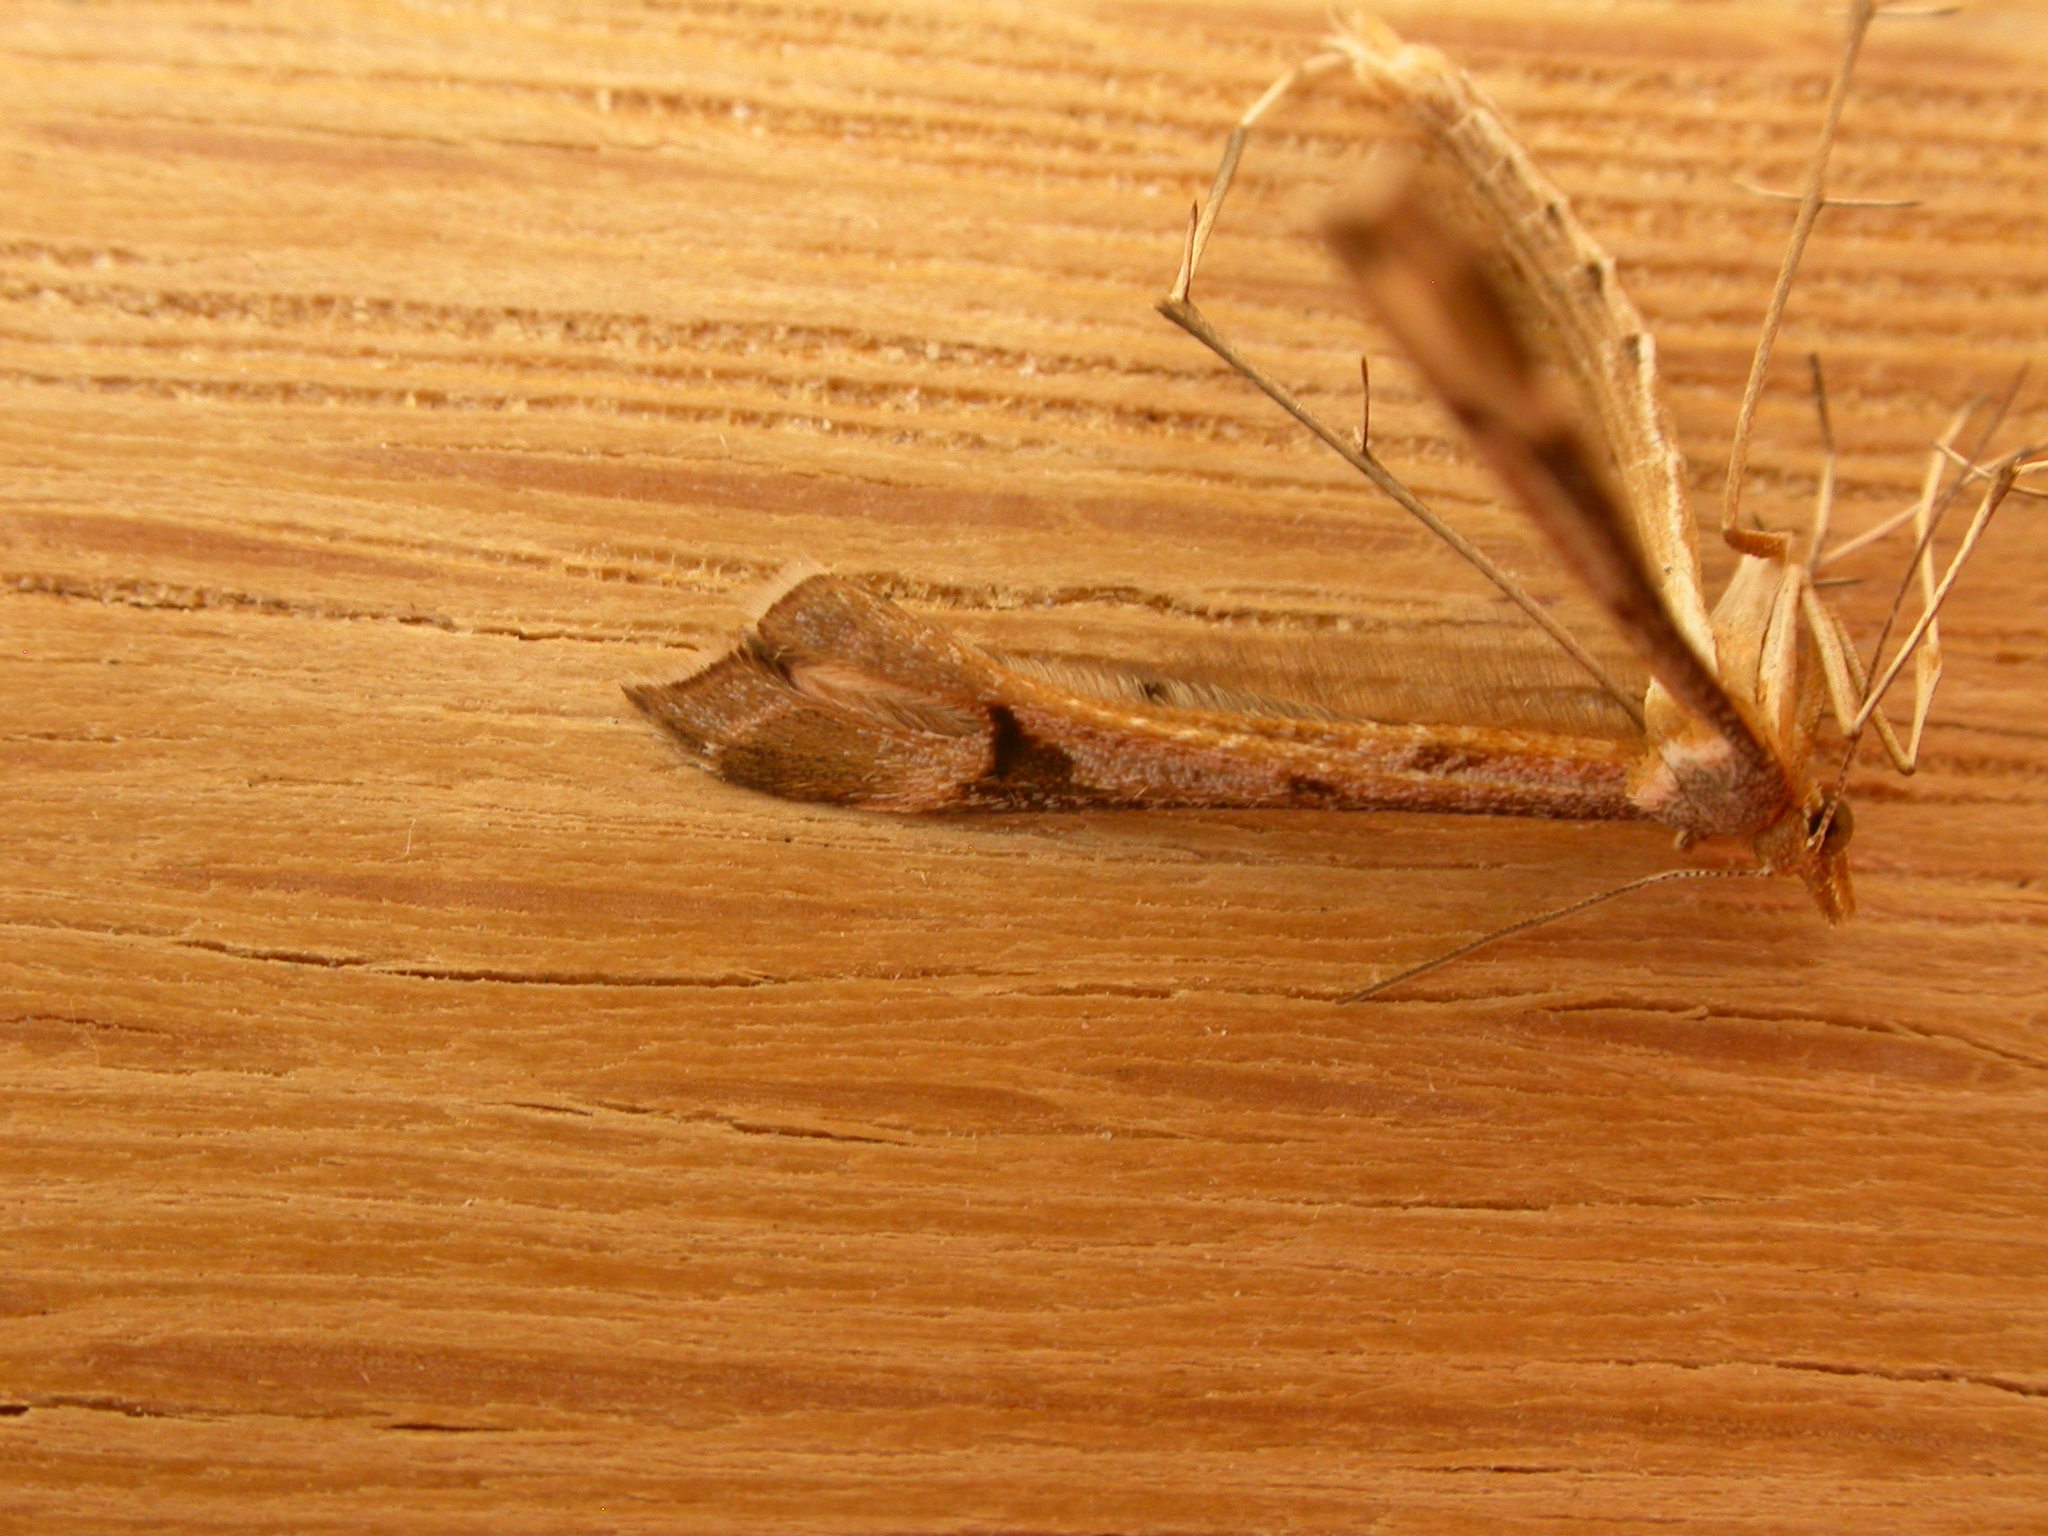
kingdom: Animalia
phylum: Arthropoda
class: Insecta
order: Lepidoptera
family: Pterophoridae
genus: Sinpunctiptilia
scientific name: Sinpunctiptilia emissalis
